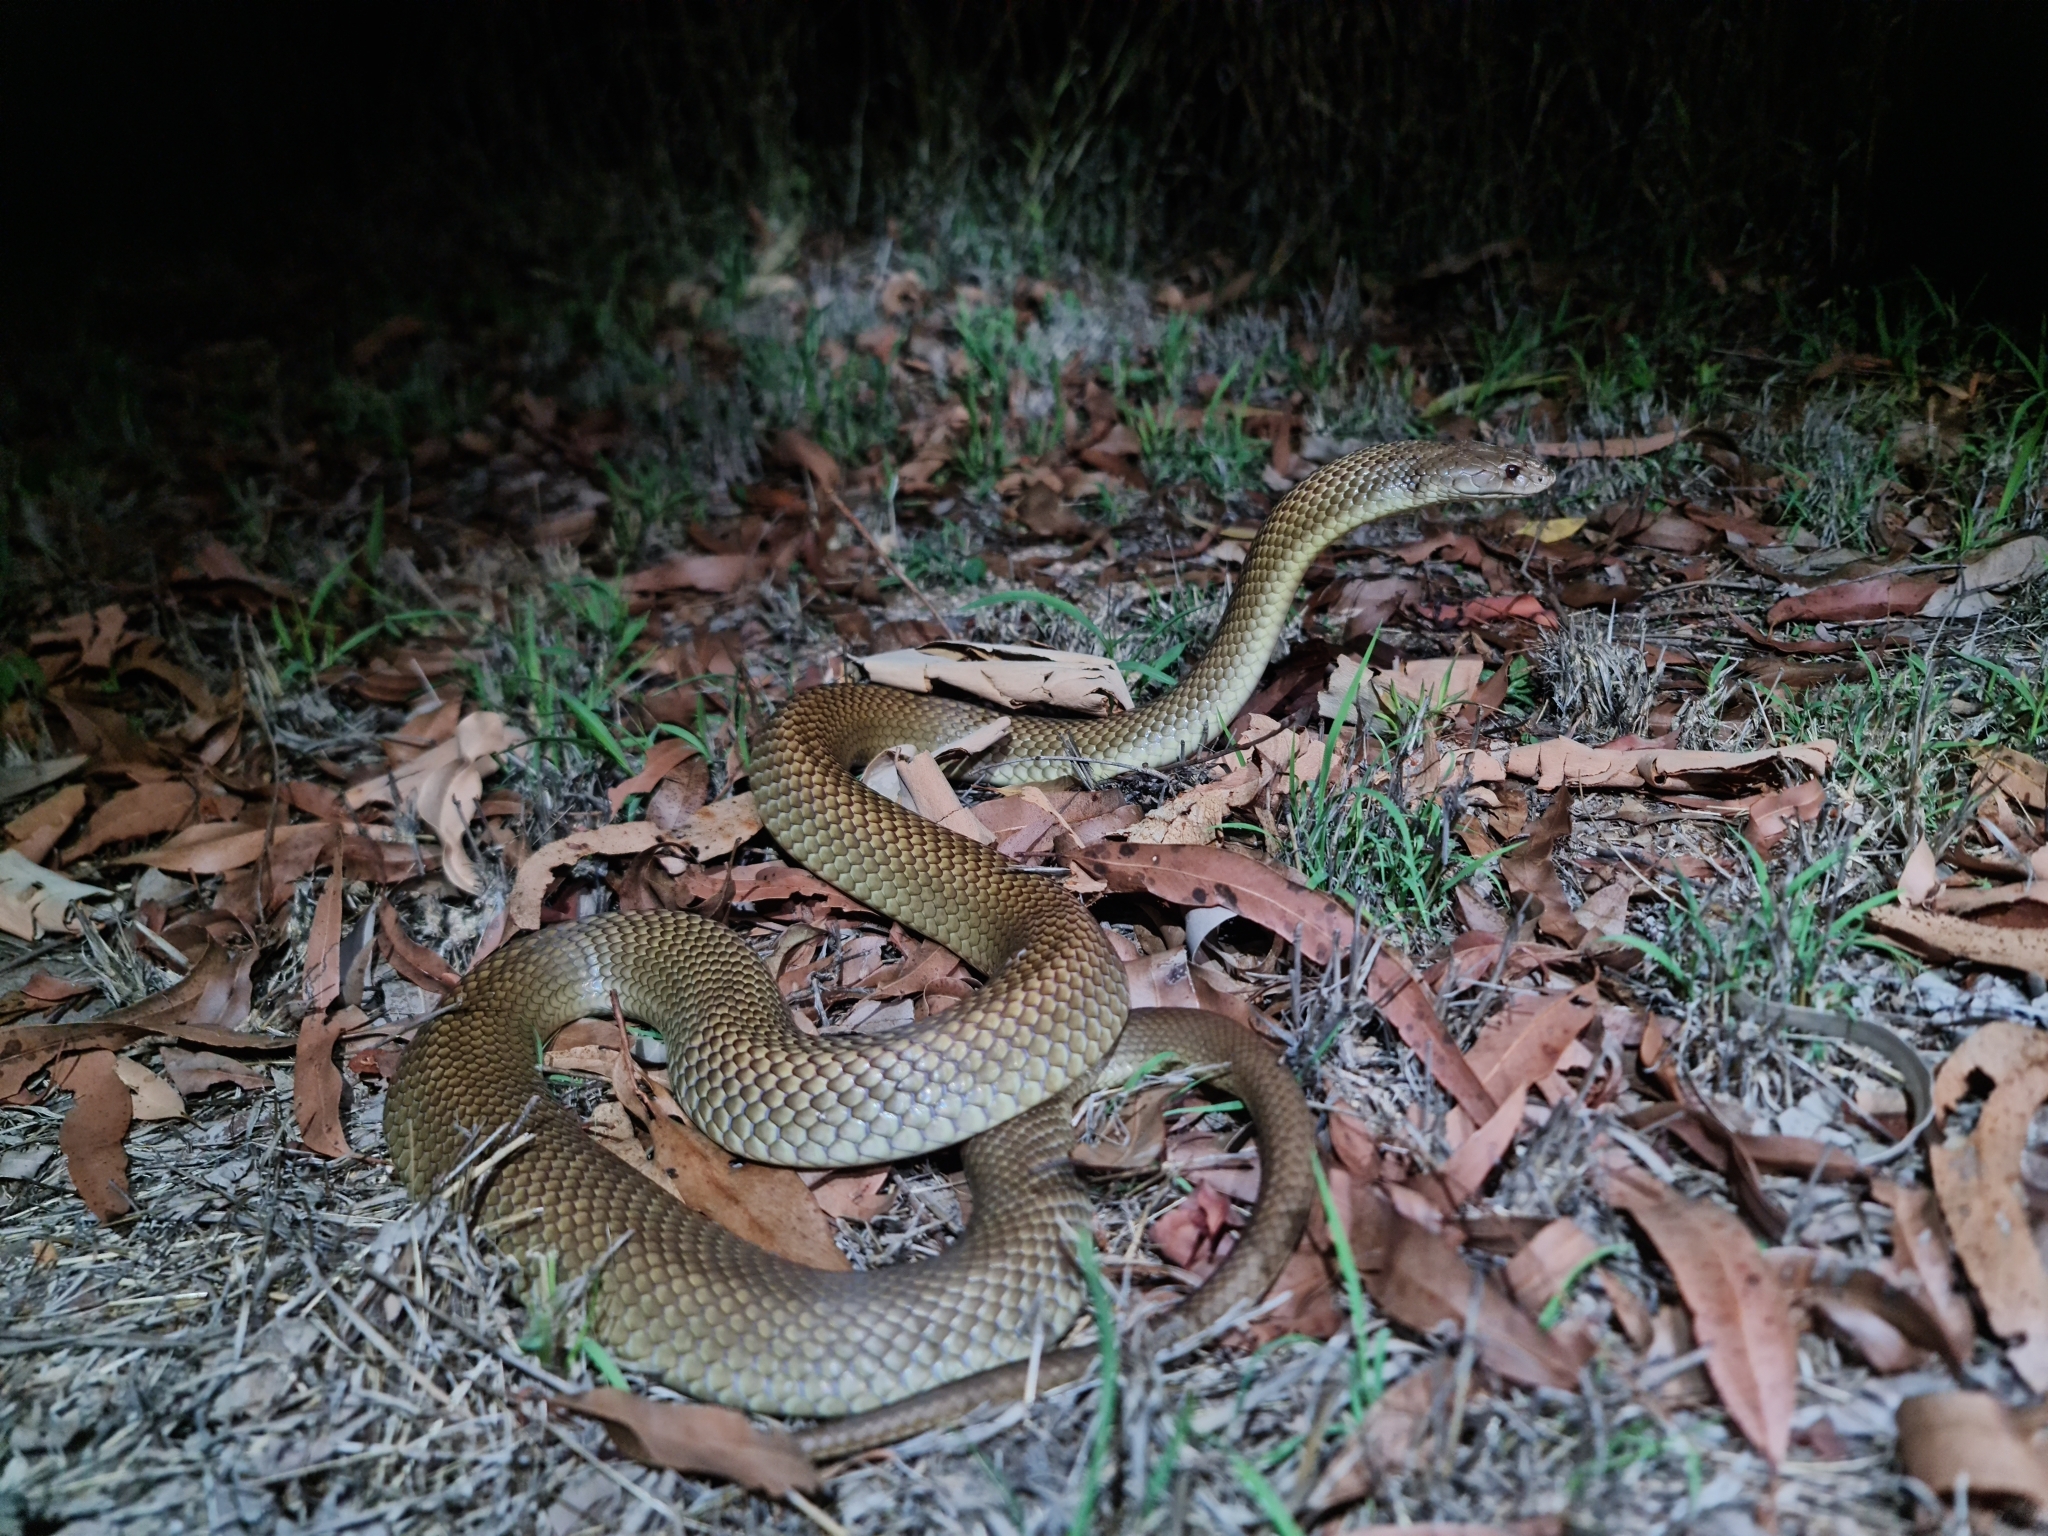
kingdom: Animalia
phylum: Chordata
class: Squamata
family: Elapidae
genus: Pseudechis
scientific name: Pseudechis australis
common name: King brown snake
